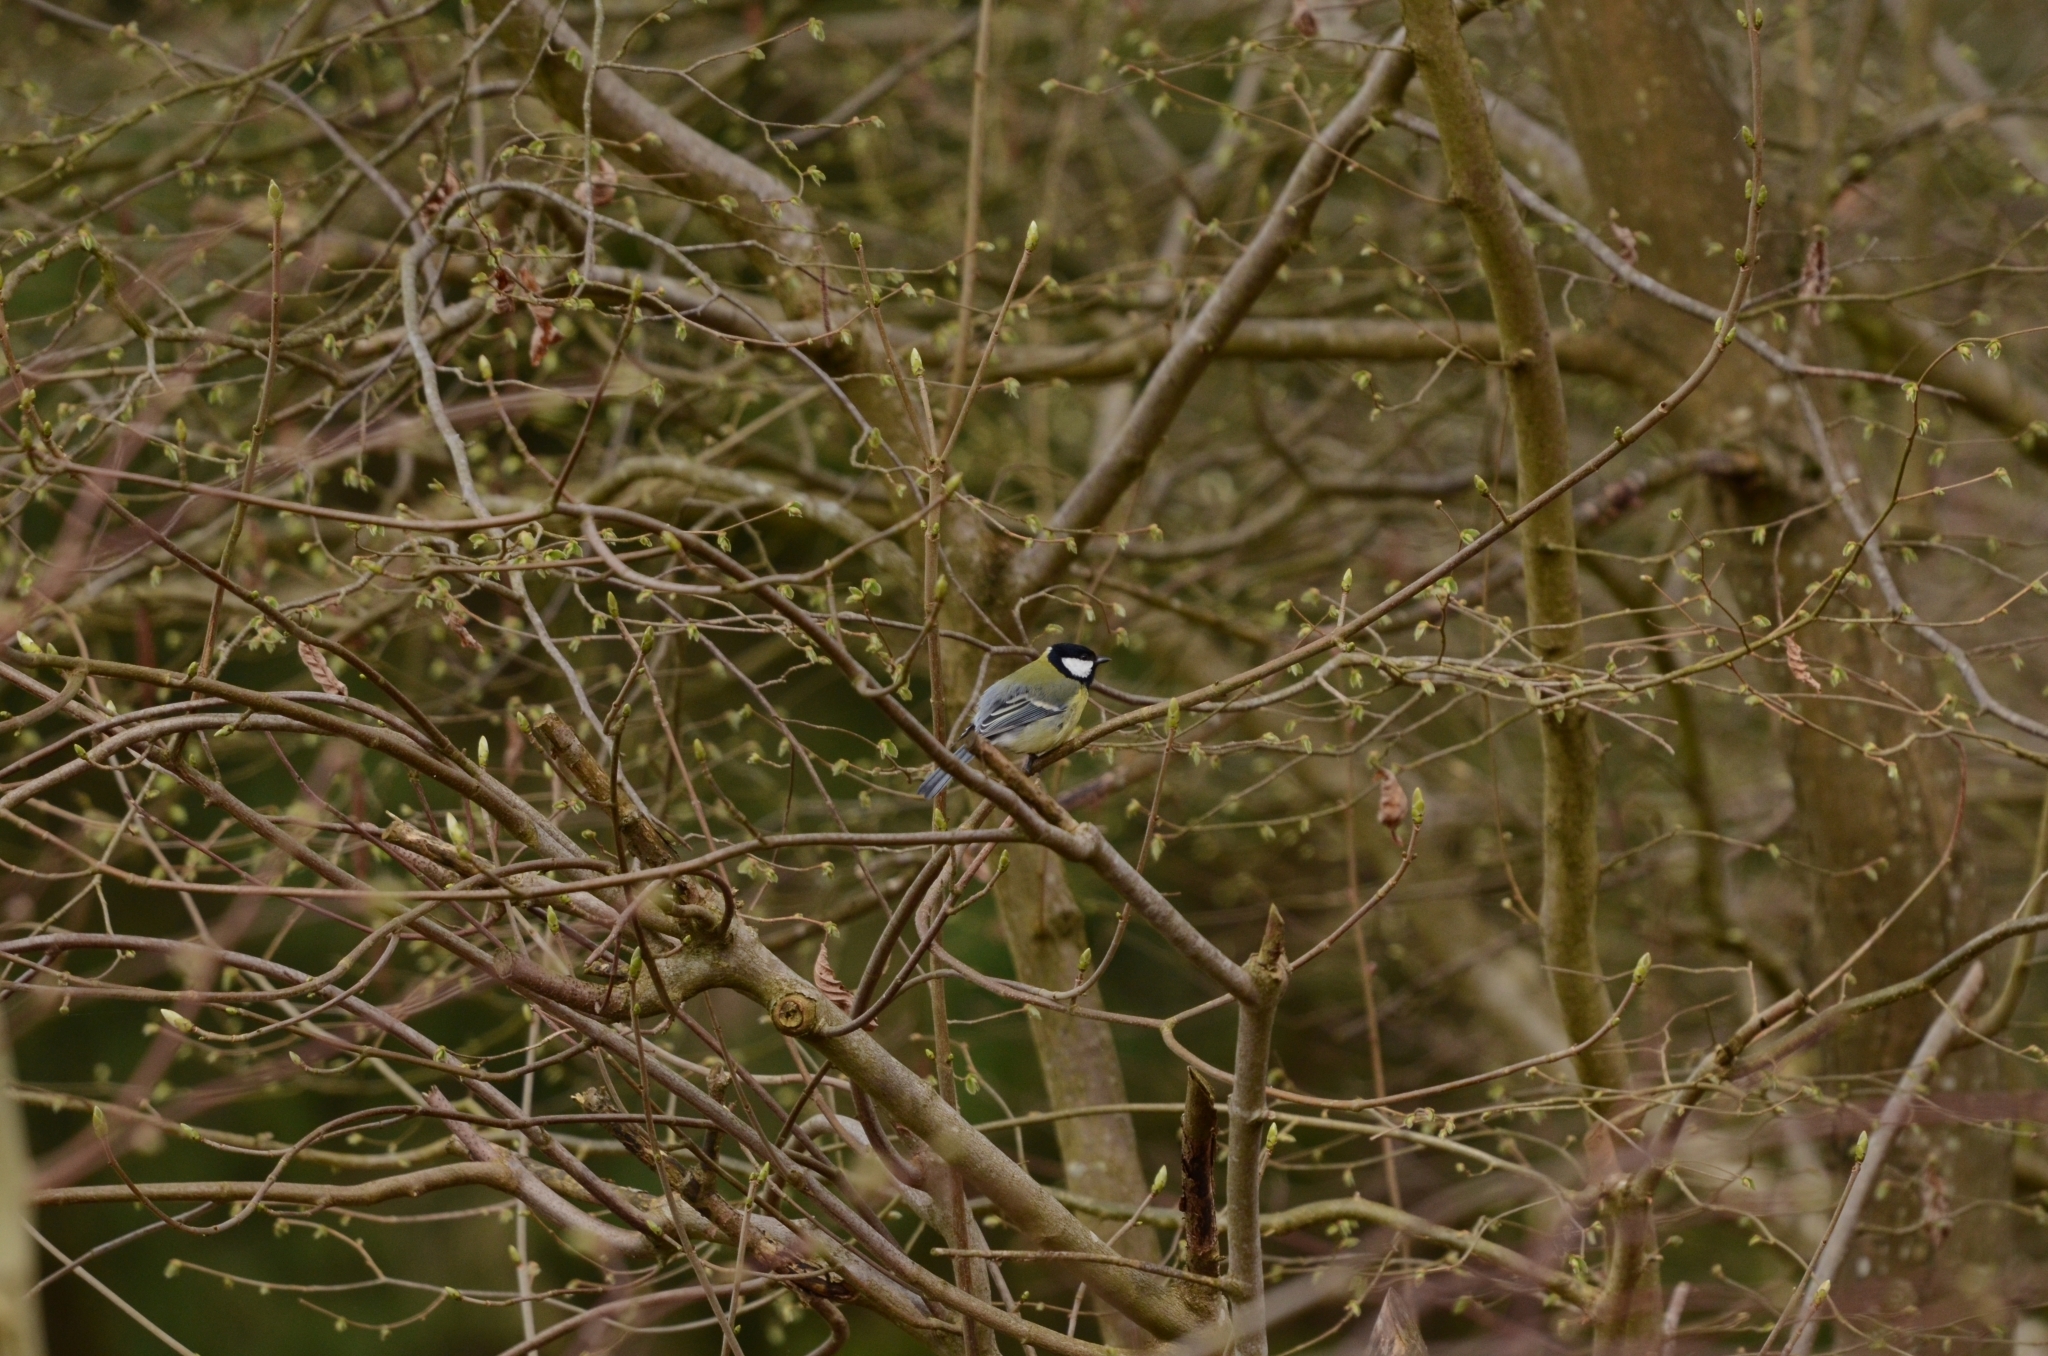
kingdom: Animalia
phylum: Chordata
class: Aves
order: Passeriformes
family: Paridae
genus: Parus
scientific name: Parus major
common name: Great tit
